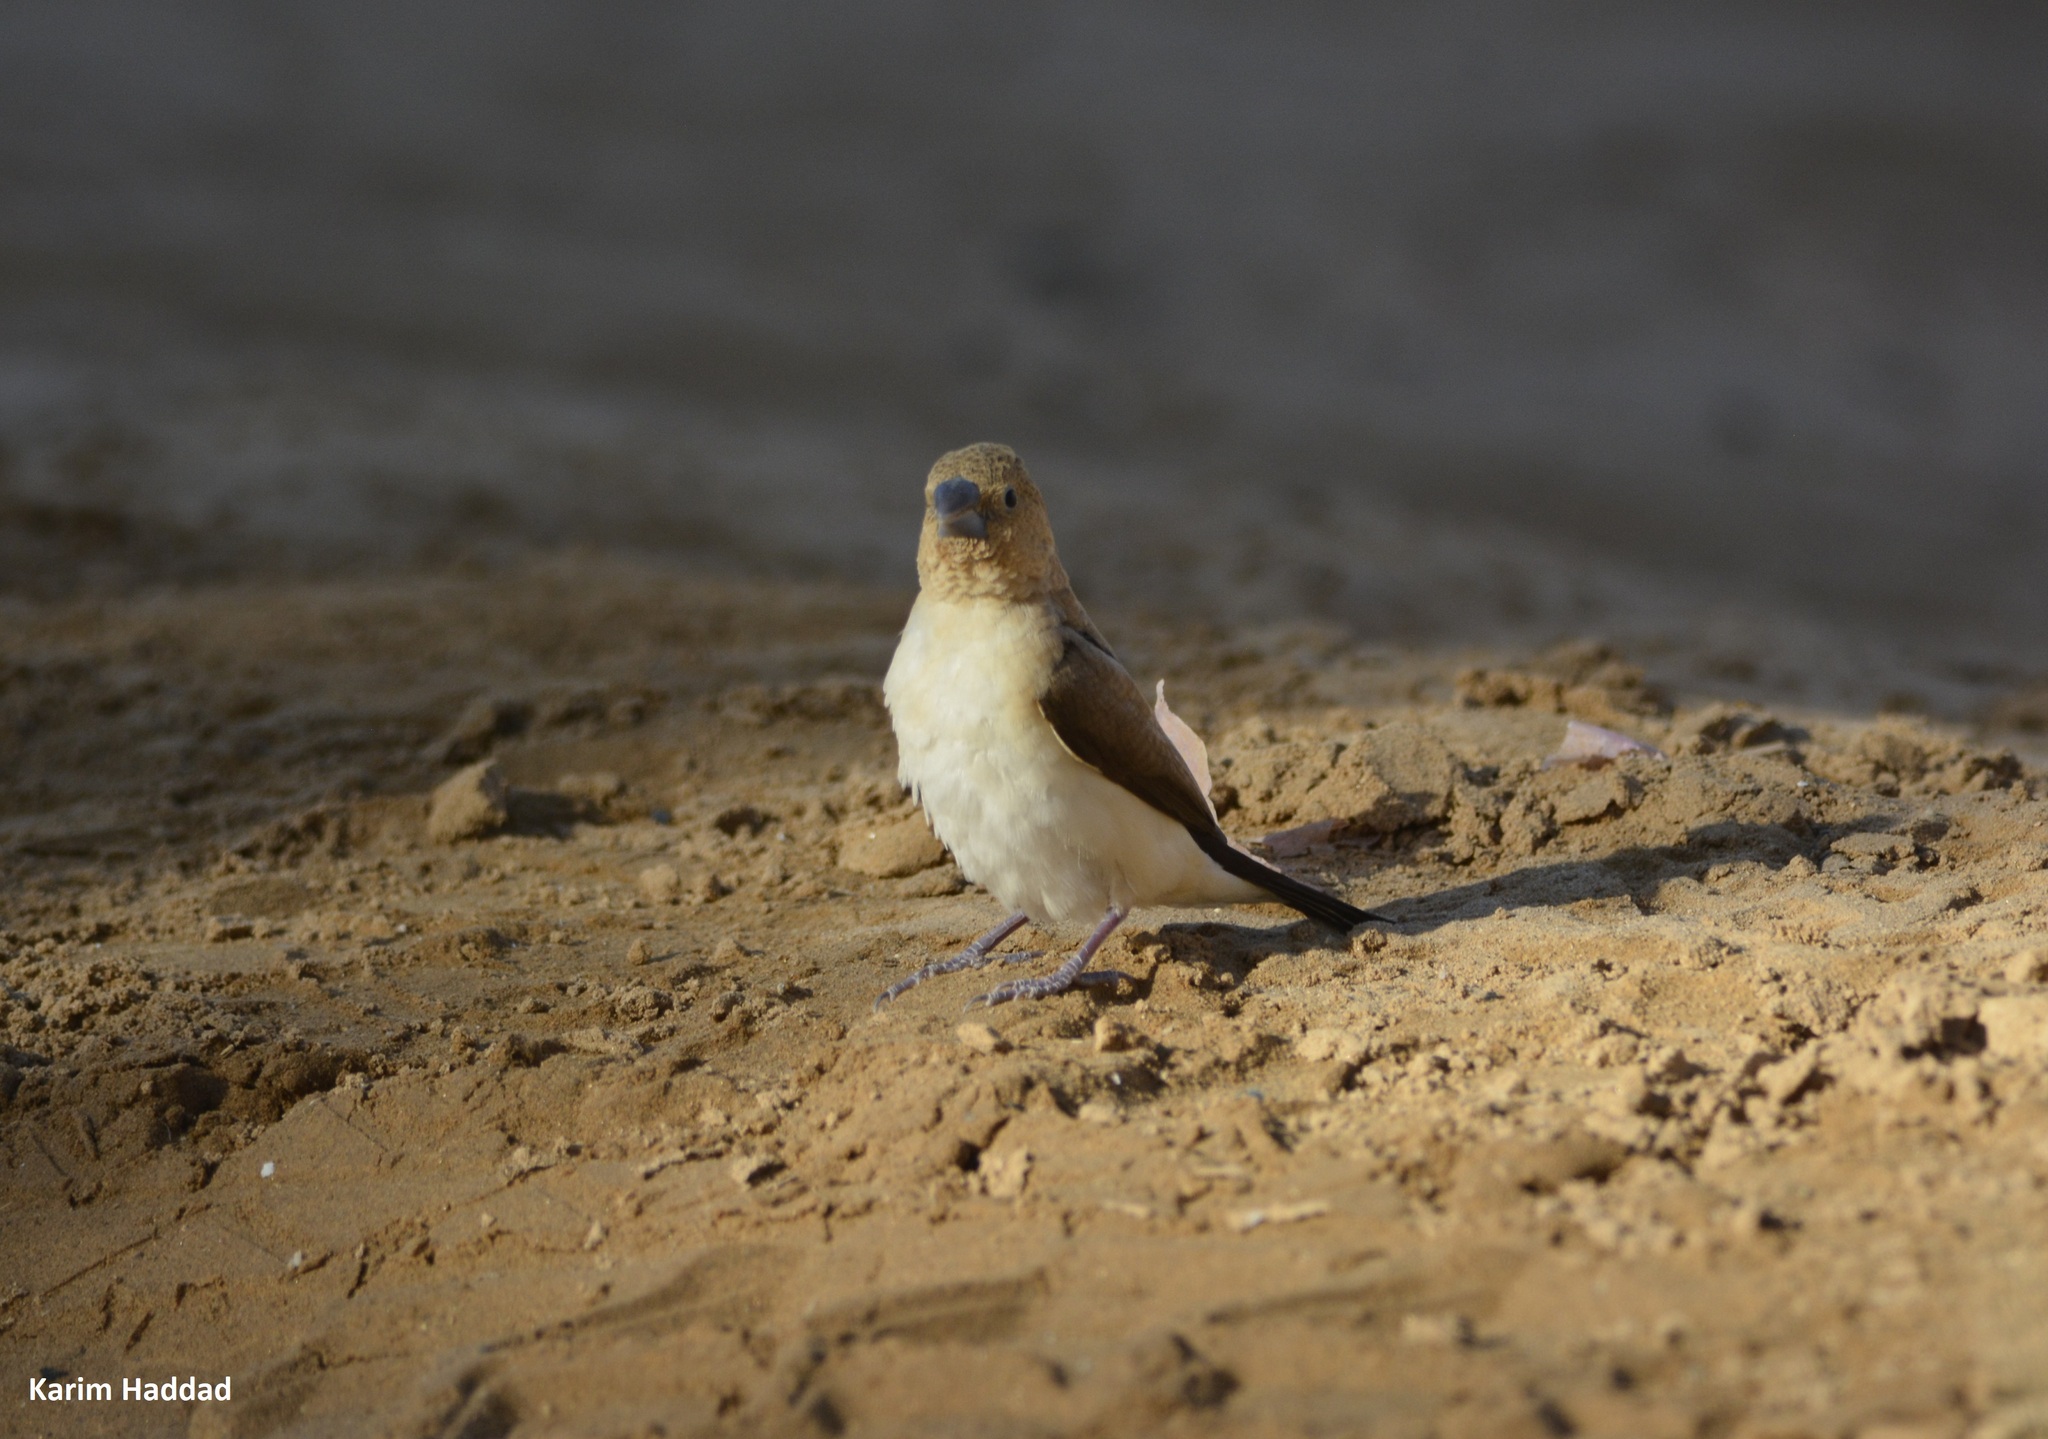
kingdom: Animalia
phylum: Chordata
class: Aves
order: Passeriformes
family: Estrildidae
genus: Euodice
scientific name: Euodice cantans
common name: African silverbill
